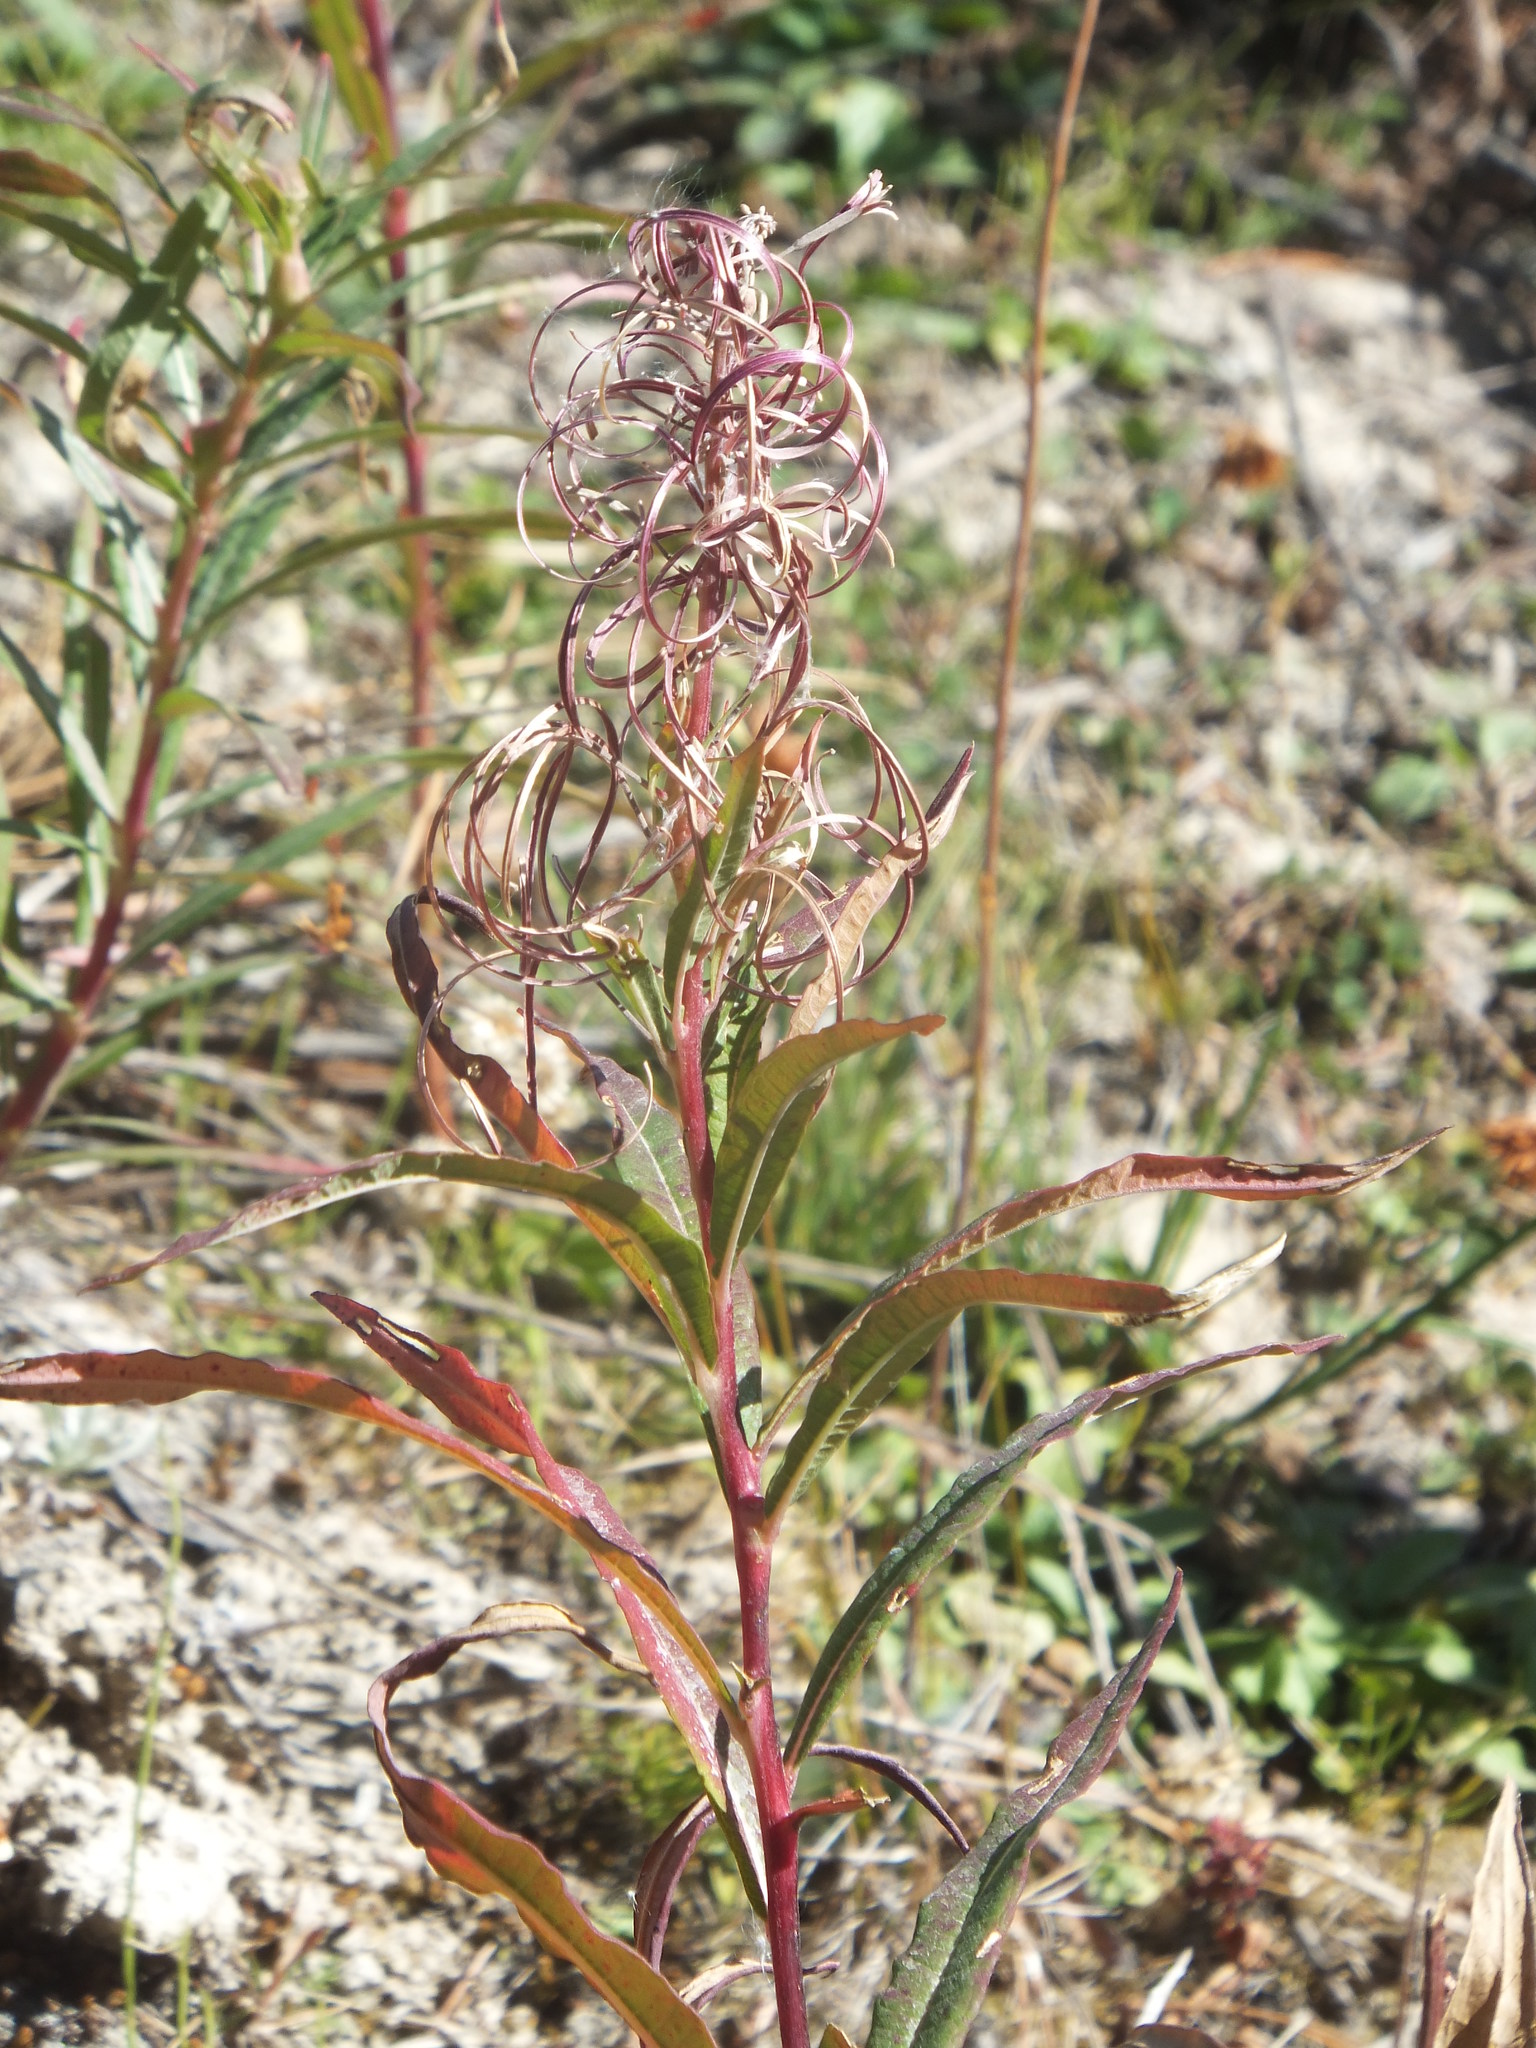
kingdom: Plantae
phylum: Tracheophyta
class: Magnoliopsida
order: Myrtales
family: Onagraceae
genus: Chamaenerion
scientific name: Chamaenerion angustifolium
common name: Fireweed
